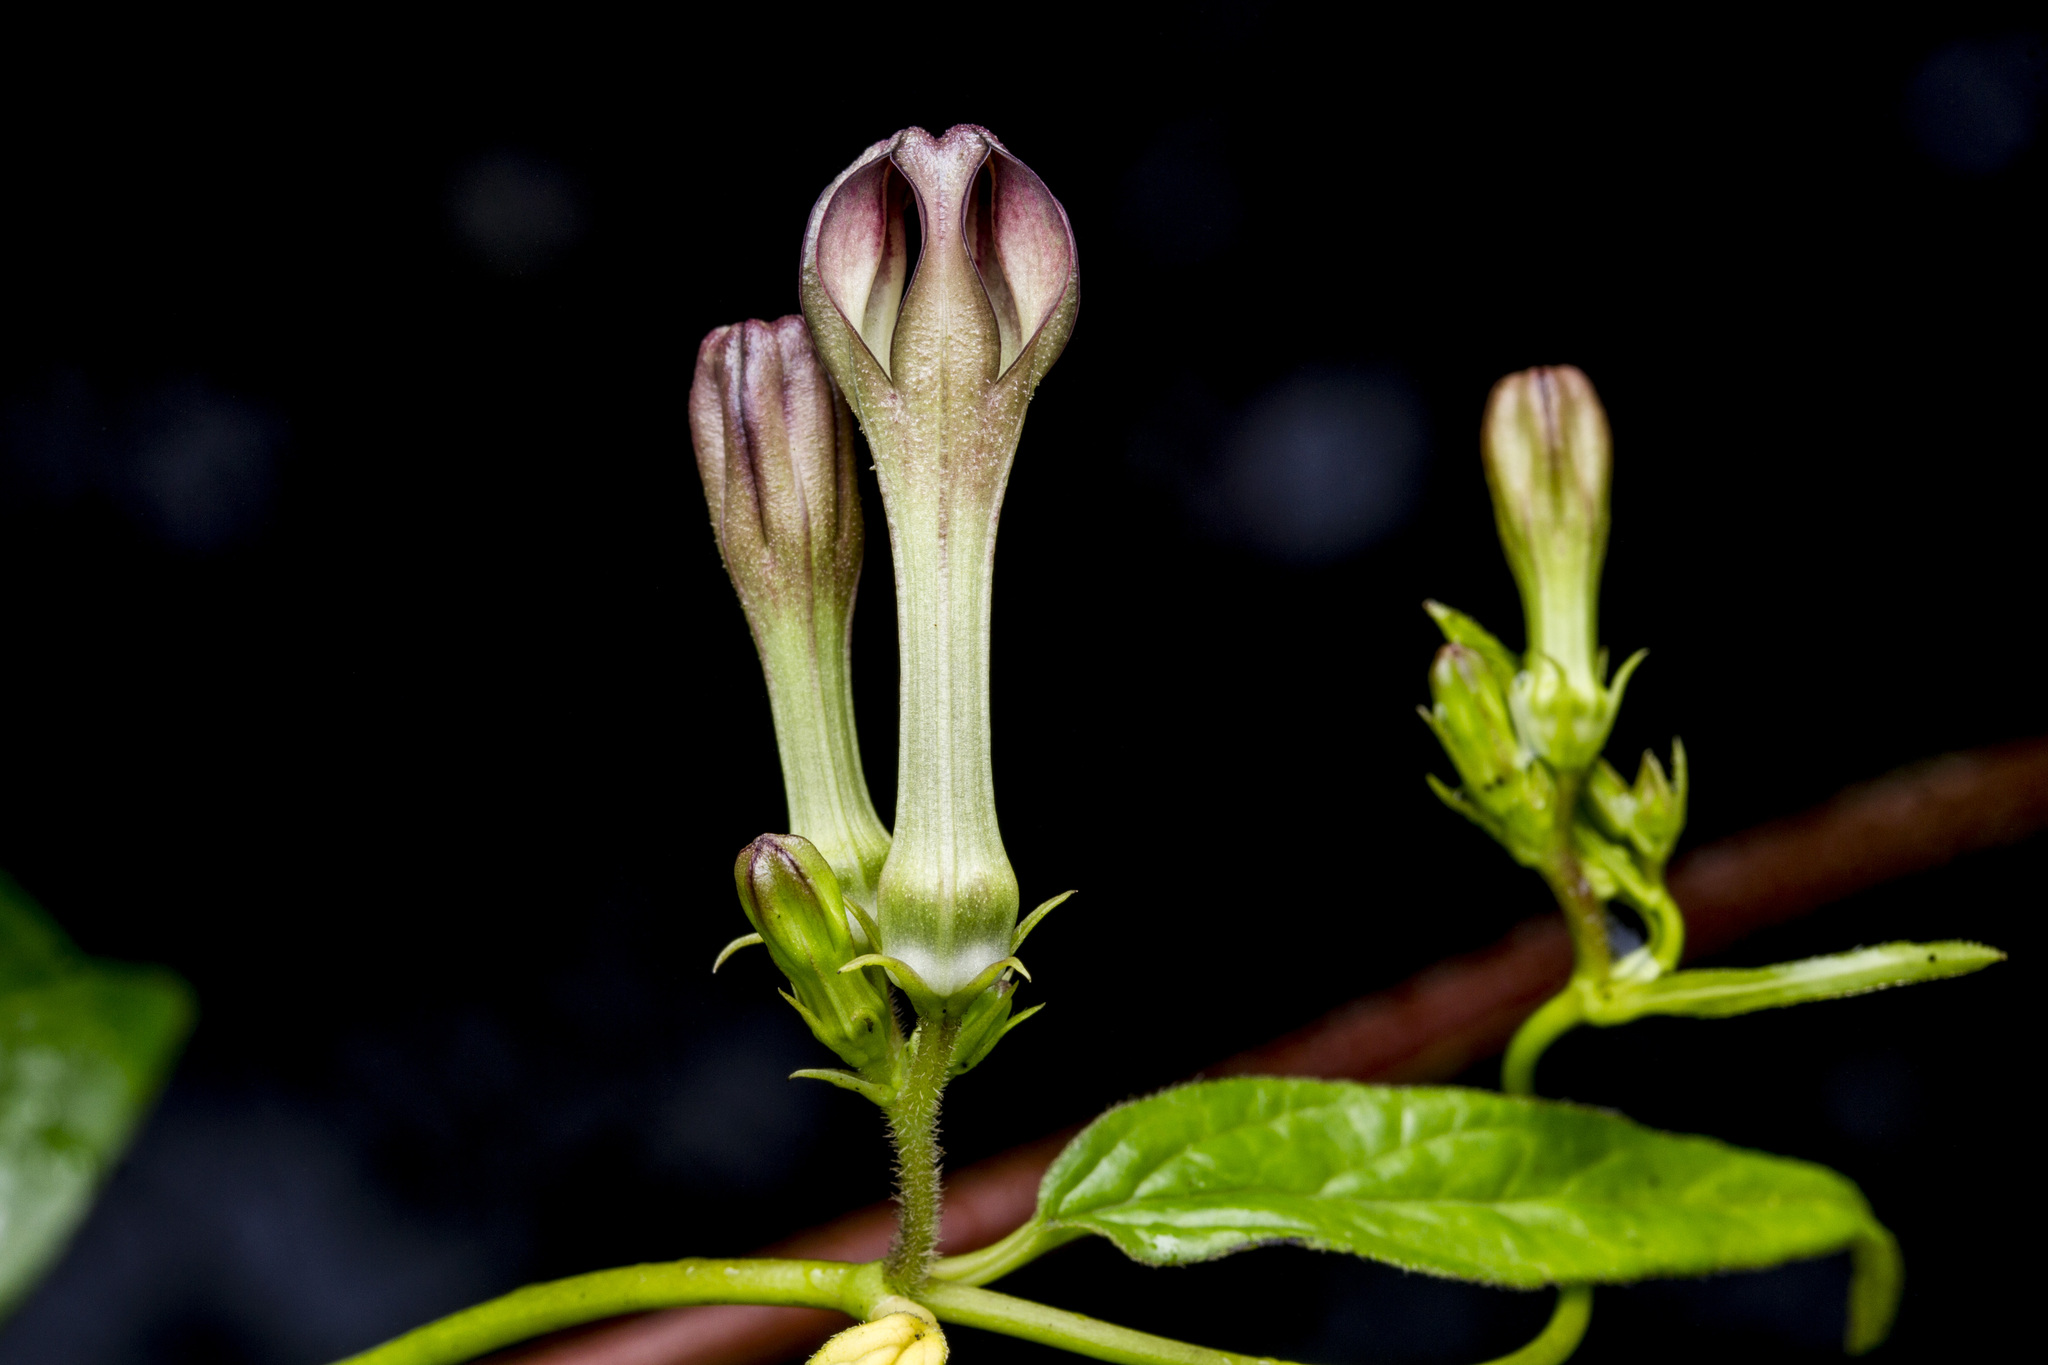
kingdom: Plantae
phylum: Tracheophyta
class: Magnoliopsida
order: Gentianales
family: Apocynaceae
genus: Ceropegia
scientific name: Ceropegia media
